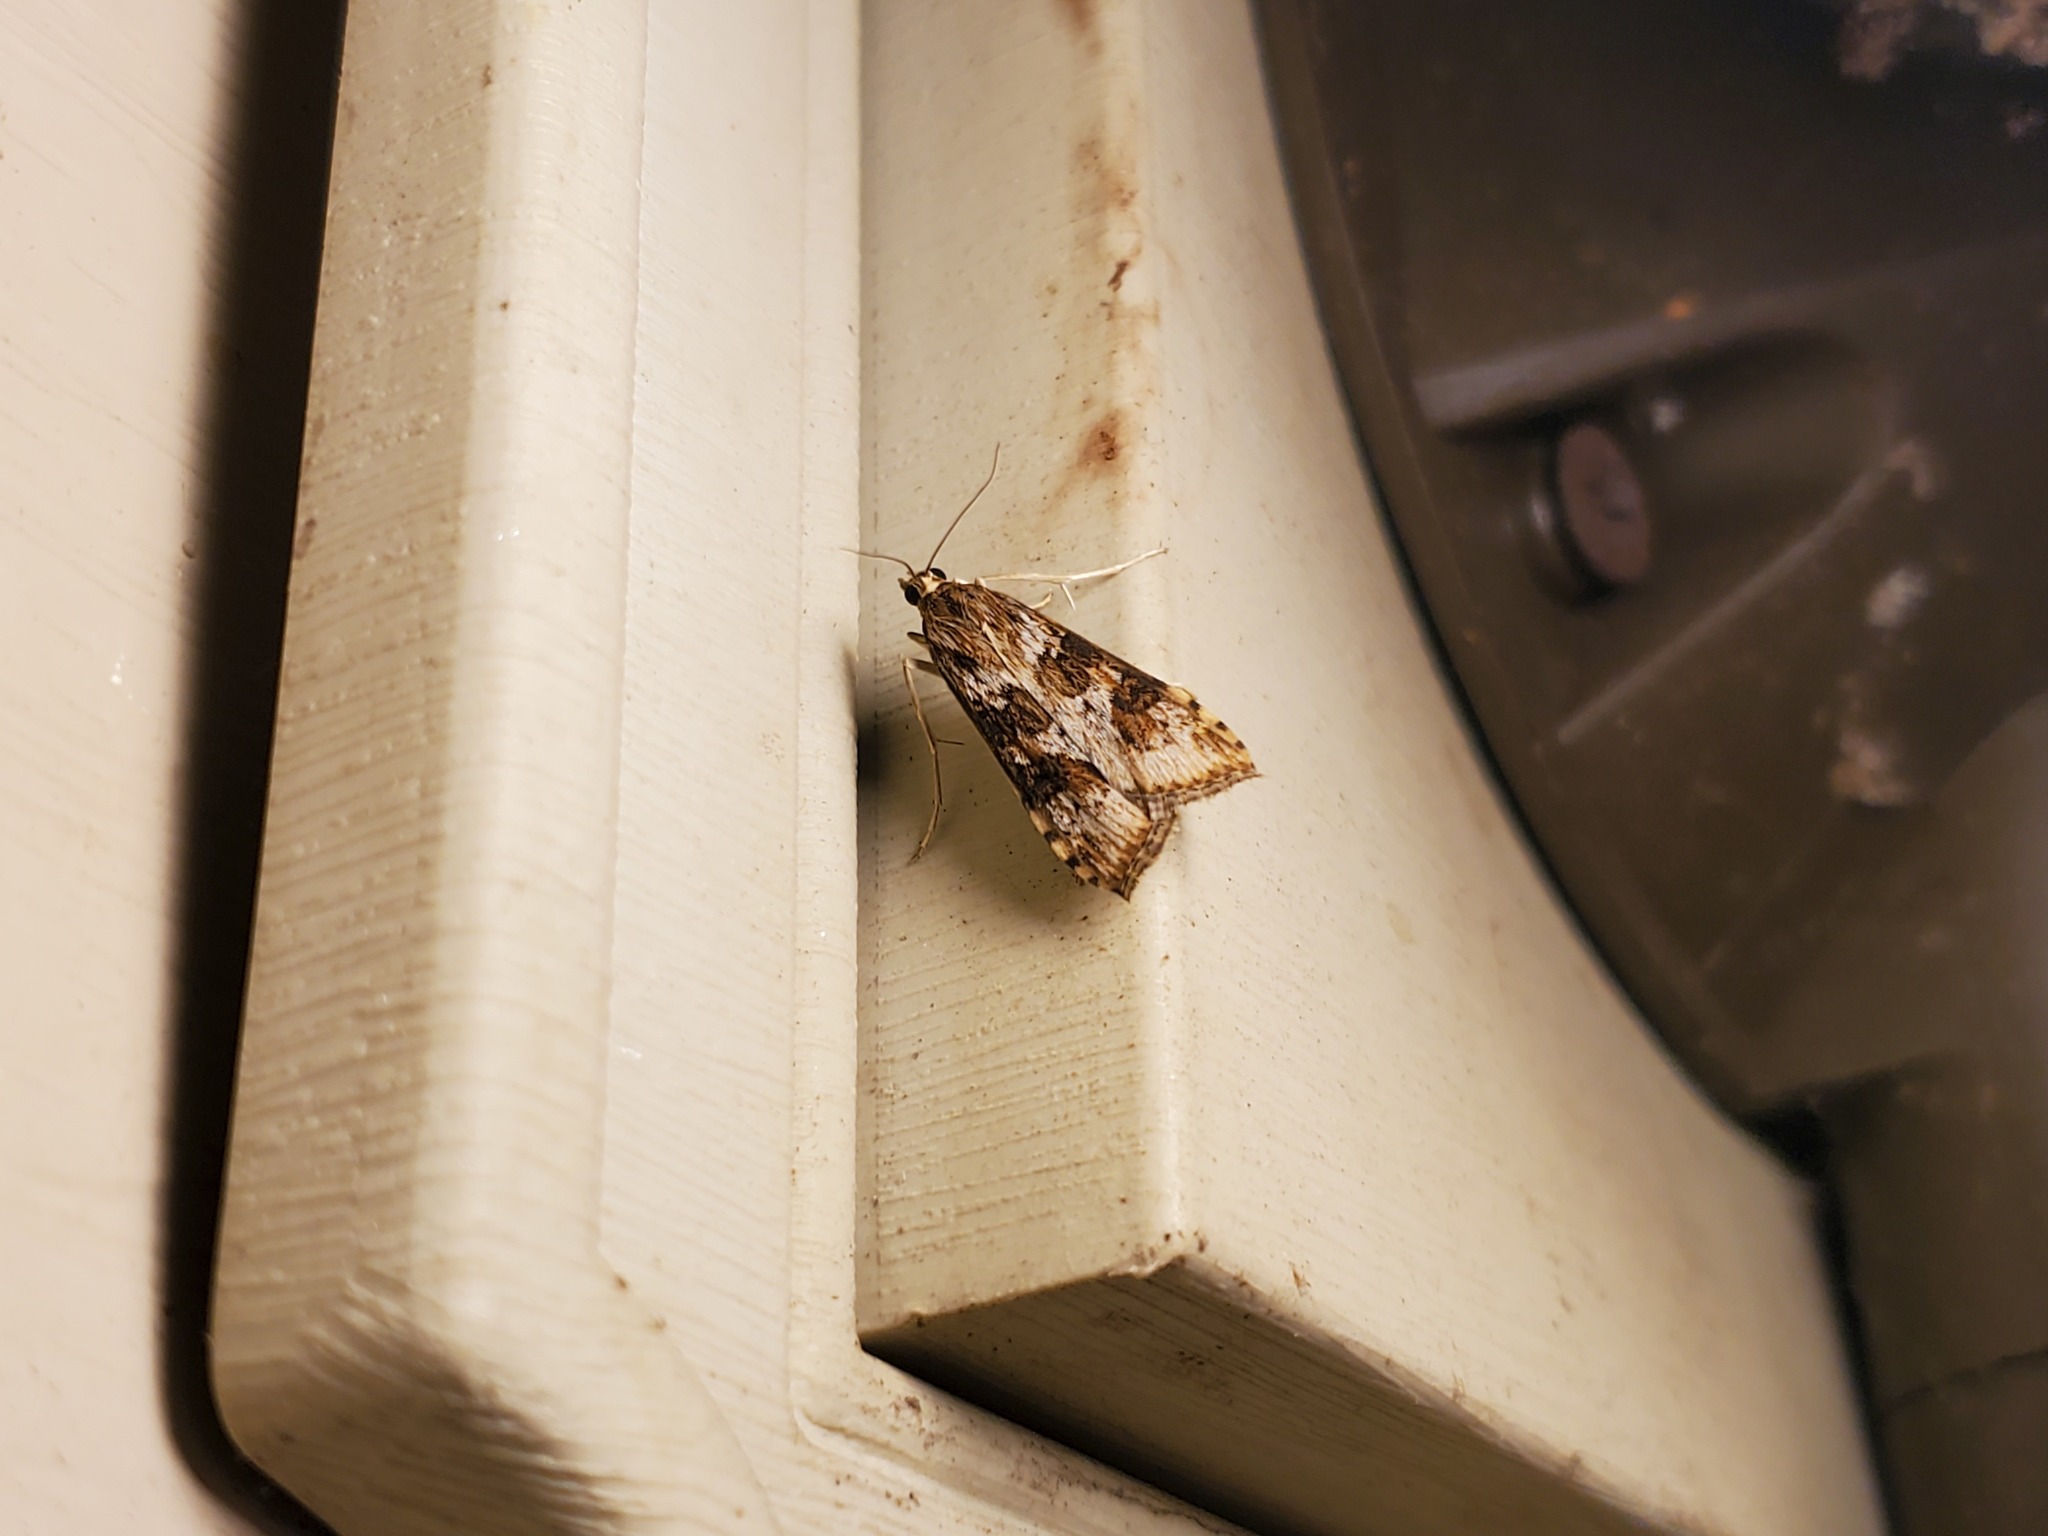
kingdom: Animalia
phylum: Arthropoda
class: Insecta
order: Lepidoptera
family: Crambidae
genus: Nomophila
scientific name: Nomophila nearctica
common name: American rush veneer
